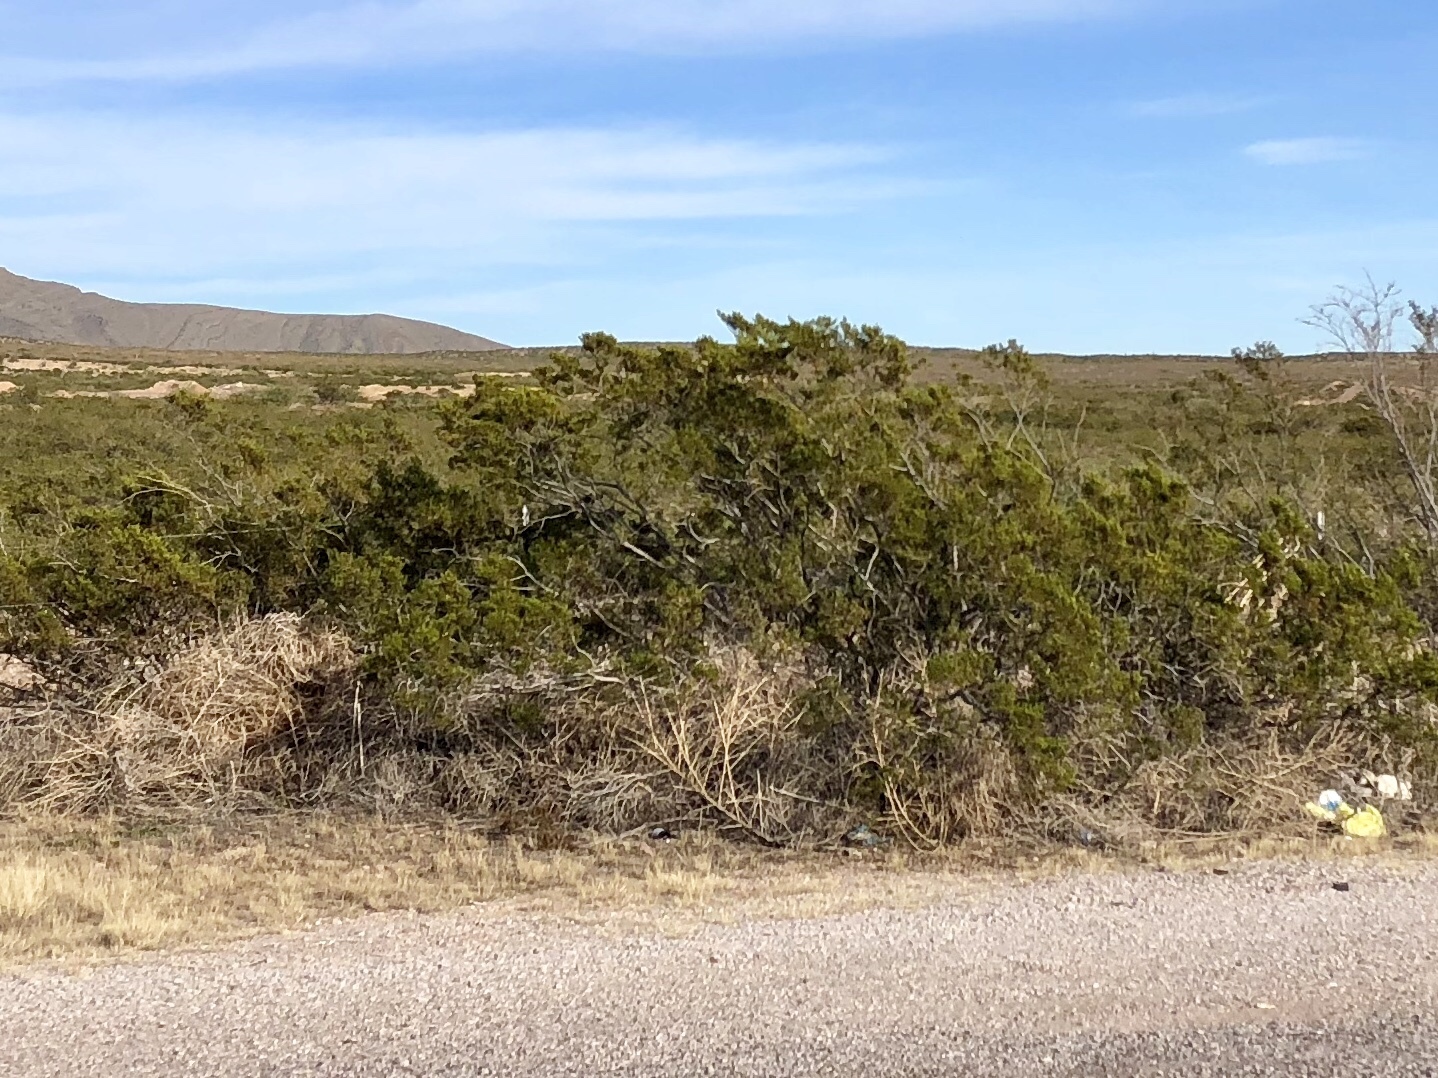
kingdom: Plantae
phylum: Tracheophyta
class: Magnoliopsida
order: Zygophyllales
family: Zygophyllaceae
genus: Larrea
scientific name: Larrea tridentata
